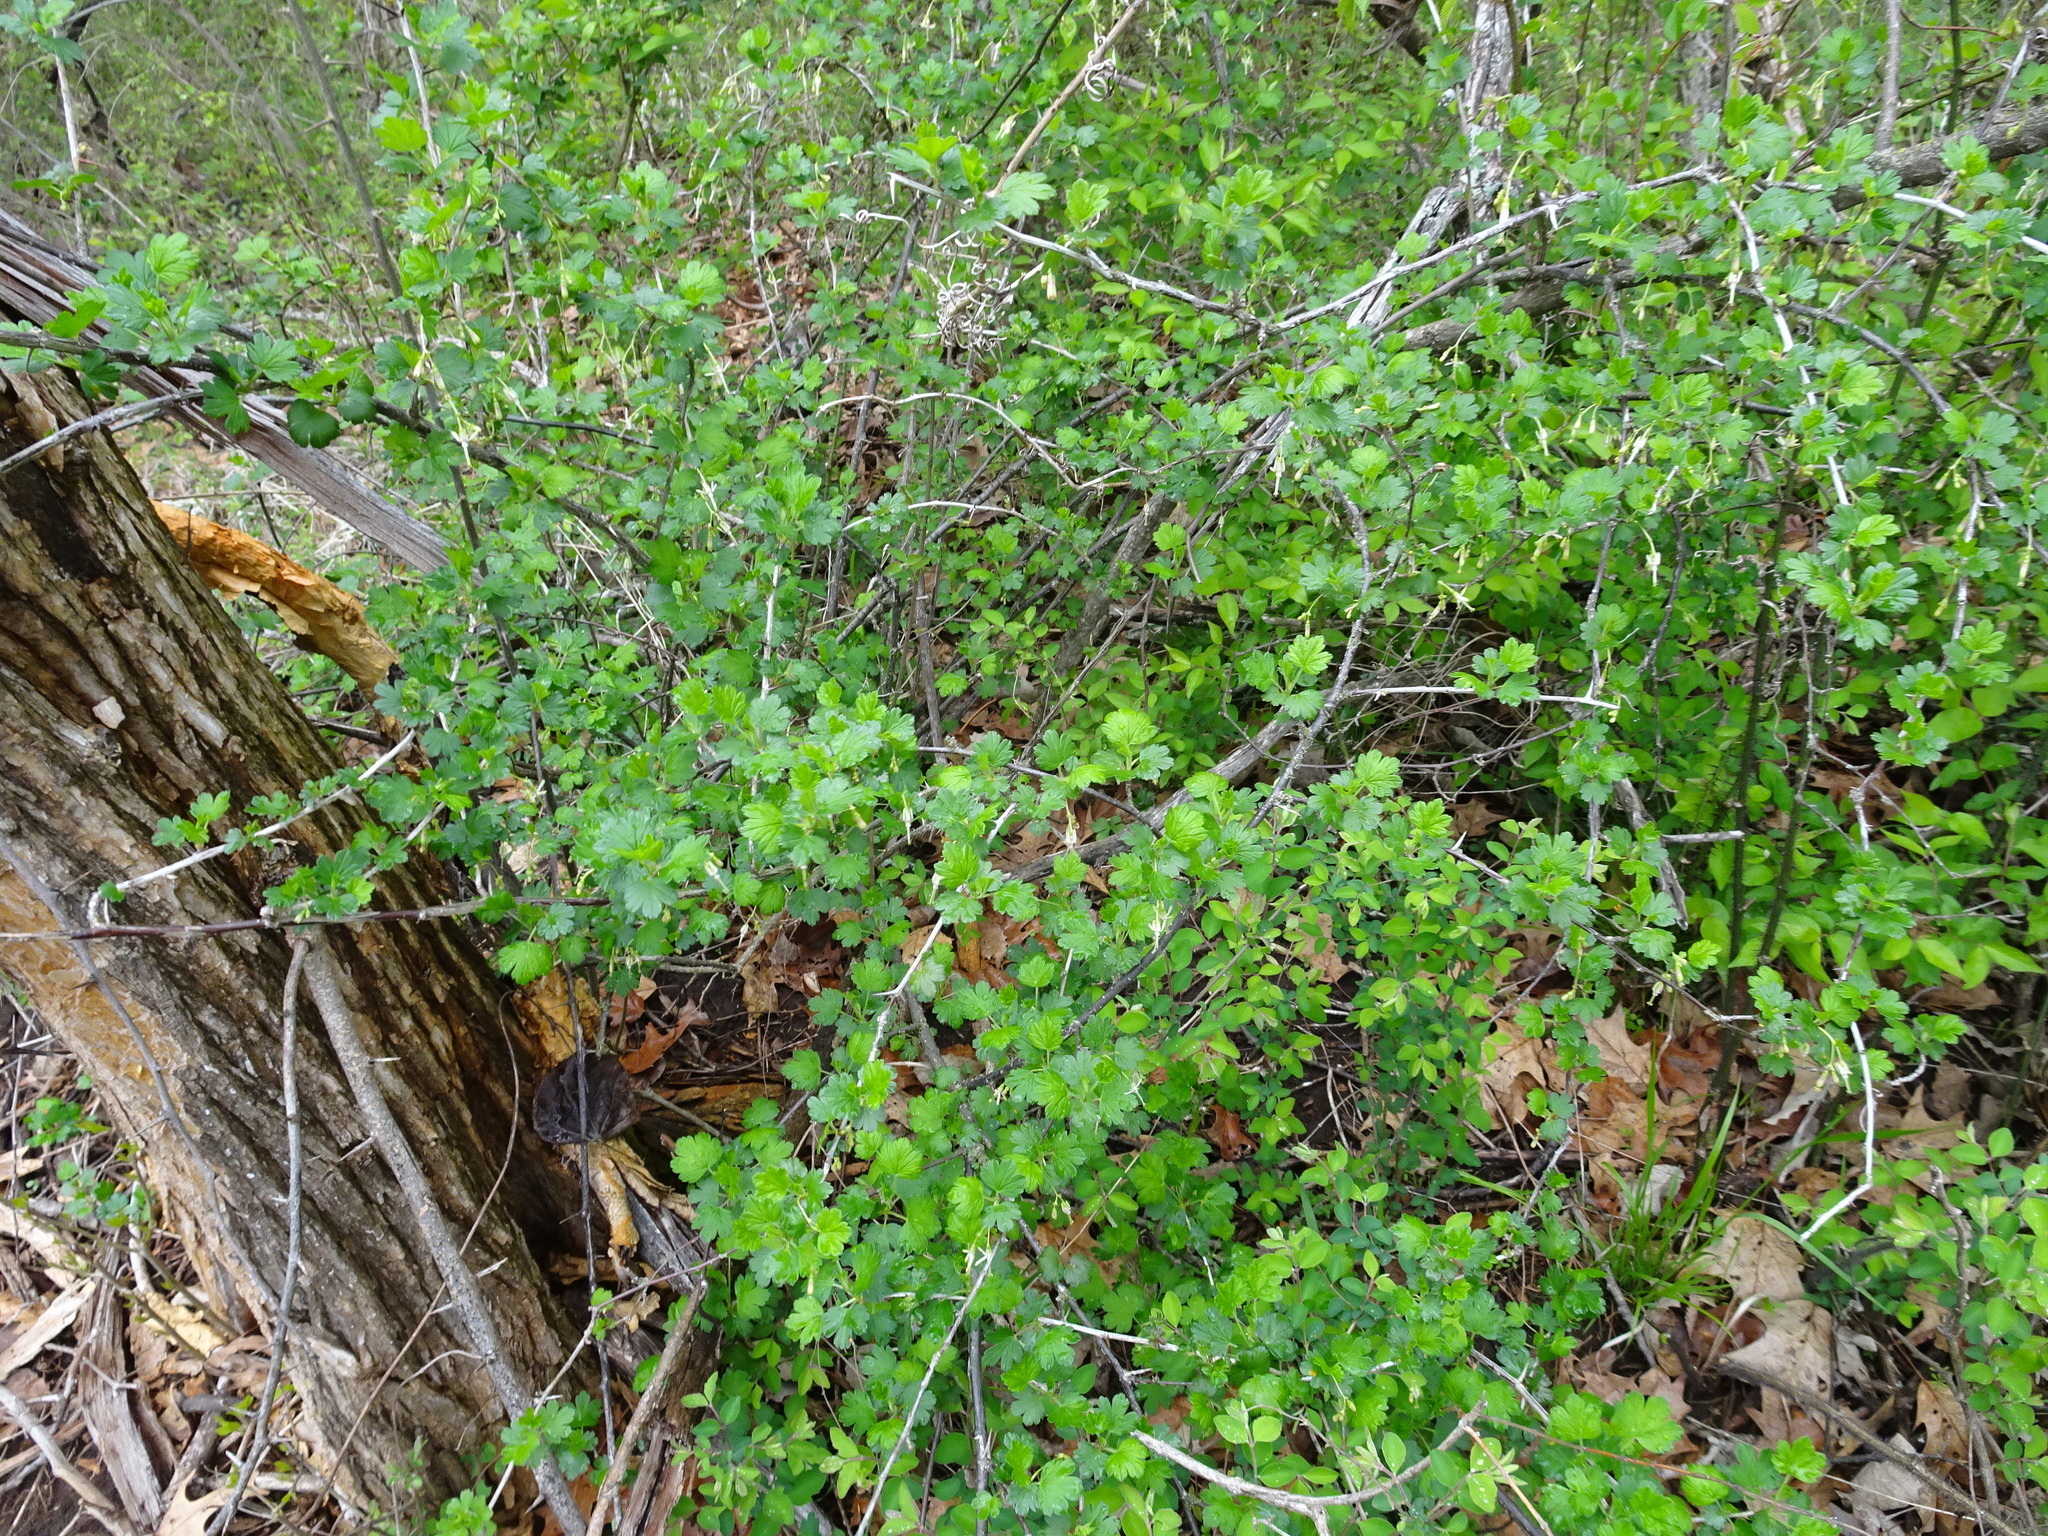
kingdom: Plantae
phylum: Tracheophyta
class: Magnoliopsida
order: Saxifragales
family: Grossulariaceae
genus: Ribes
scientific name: Ribes missouriense
